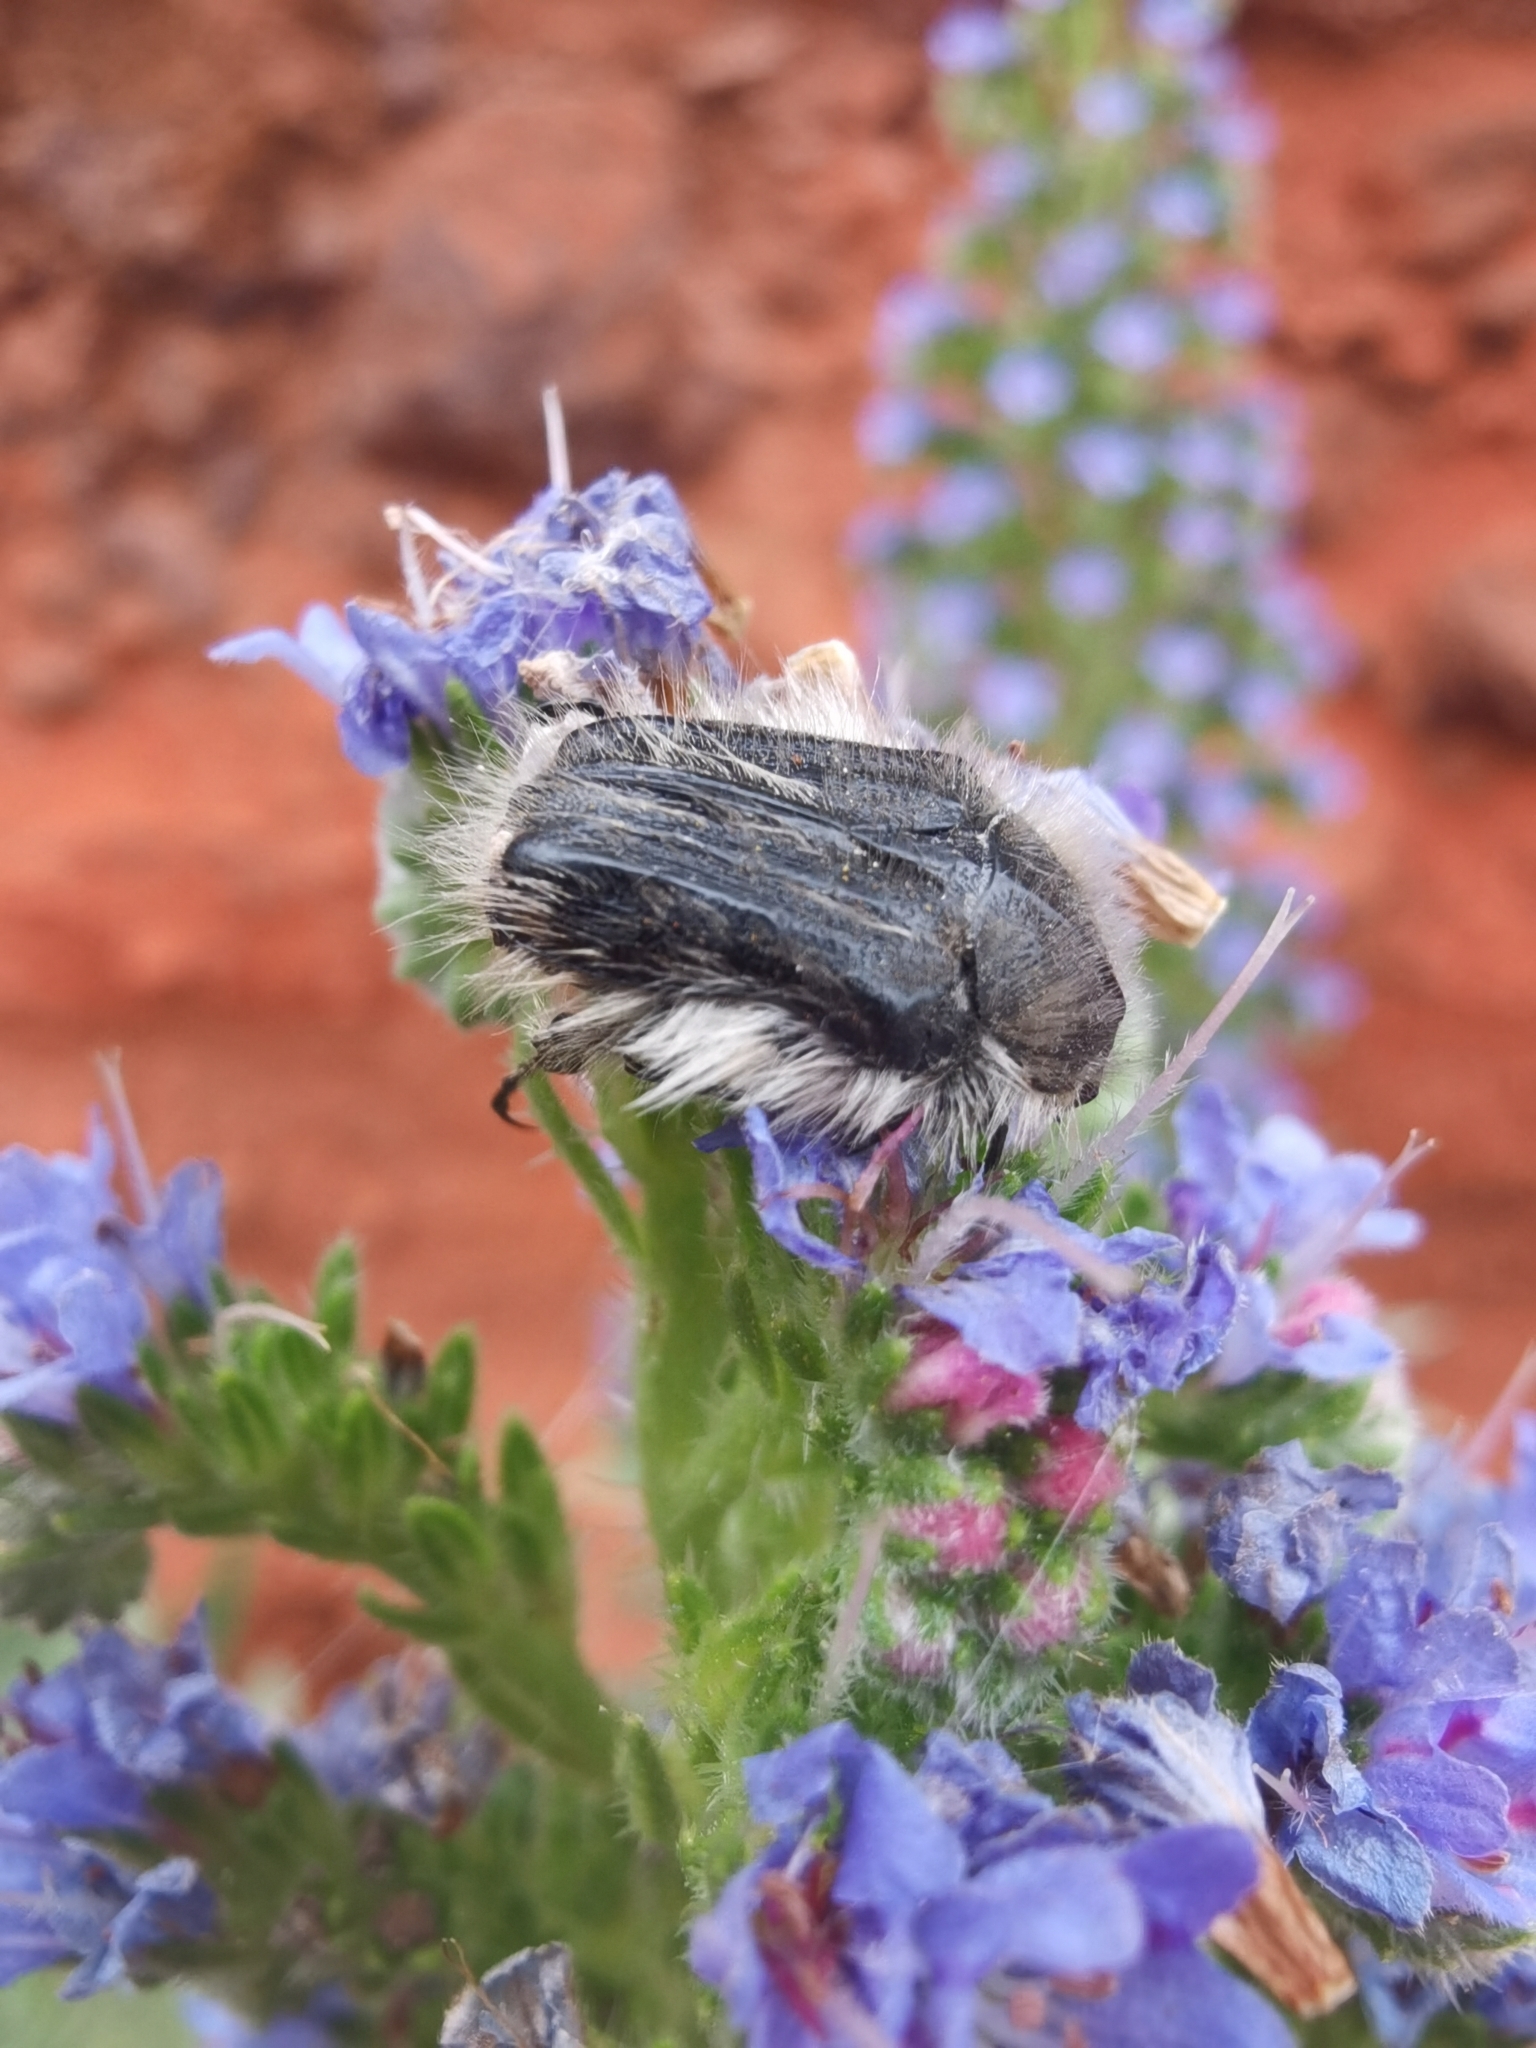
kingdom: Animalia
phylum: Arthropoda
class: Insecta
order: Coleoptera
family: Scarabaeidae
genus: Tropinota
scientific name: Tropinota squalida
